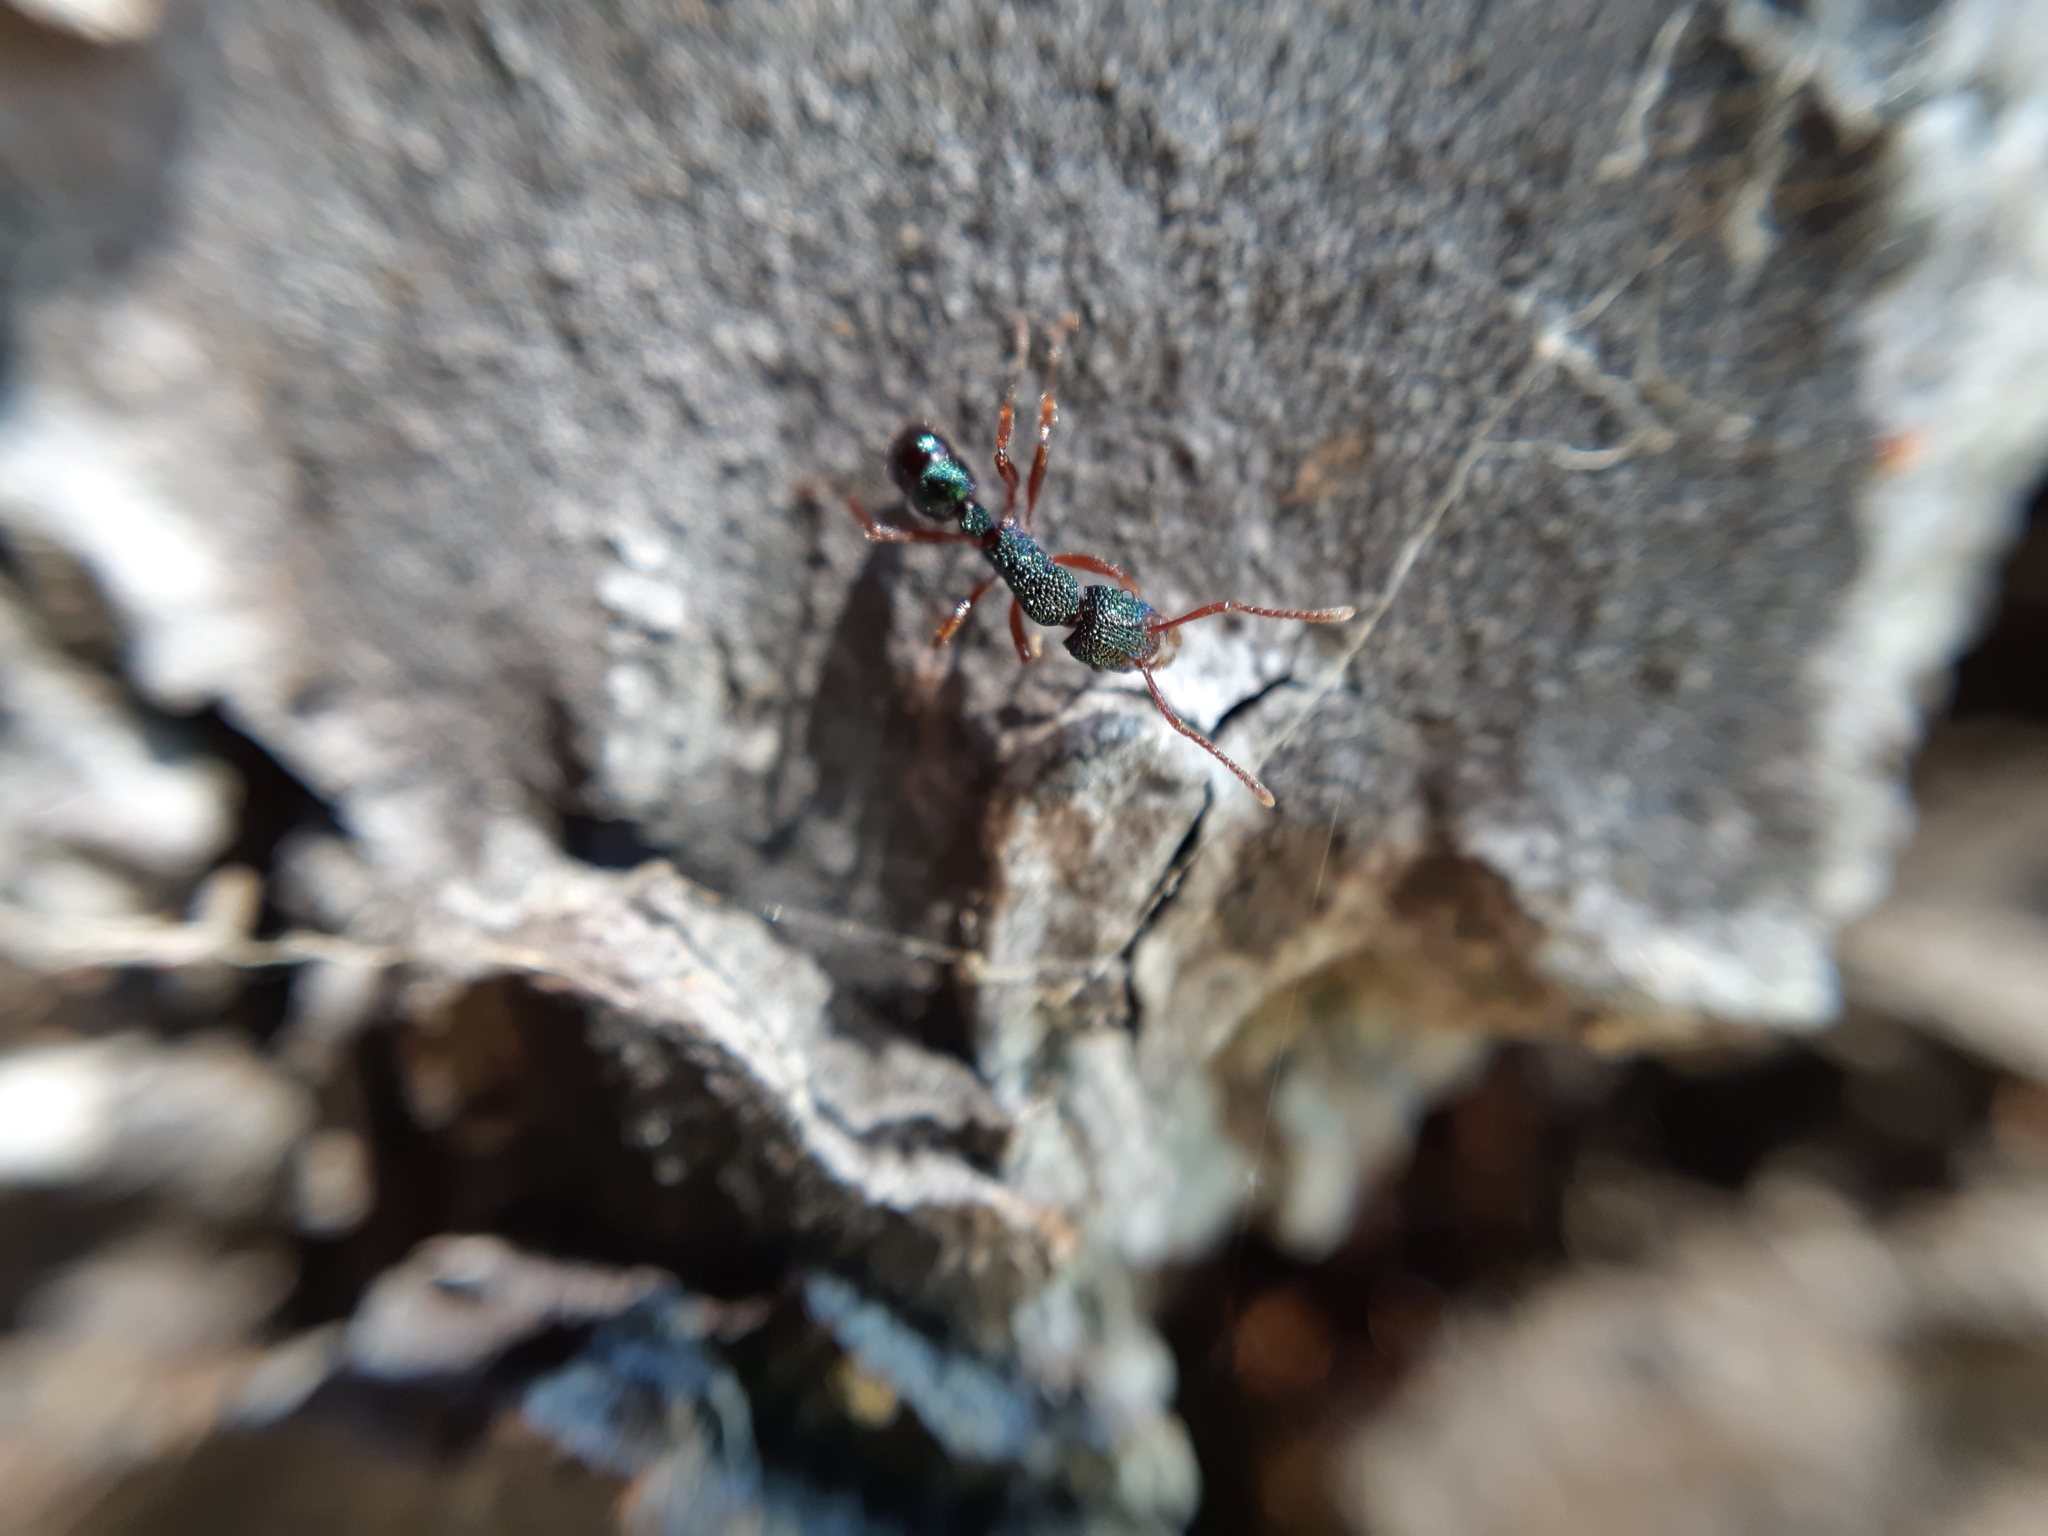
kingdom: Animalia
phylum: Arthropoda
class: Insecta
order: Hymenoptera
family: Formicidae
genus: Rhytidoponera
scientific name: Rhytidoponera aspera
